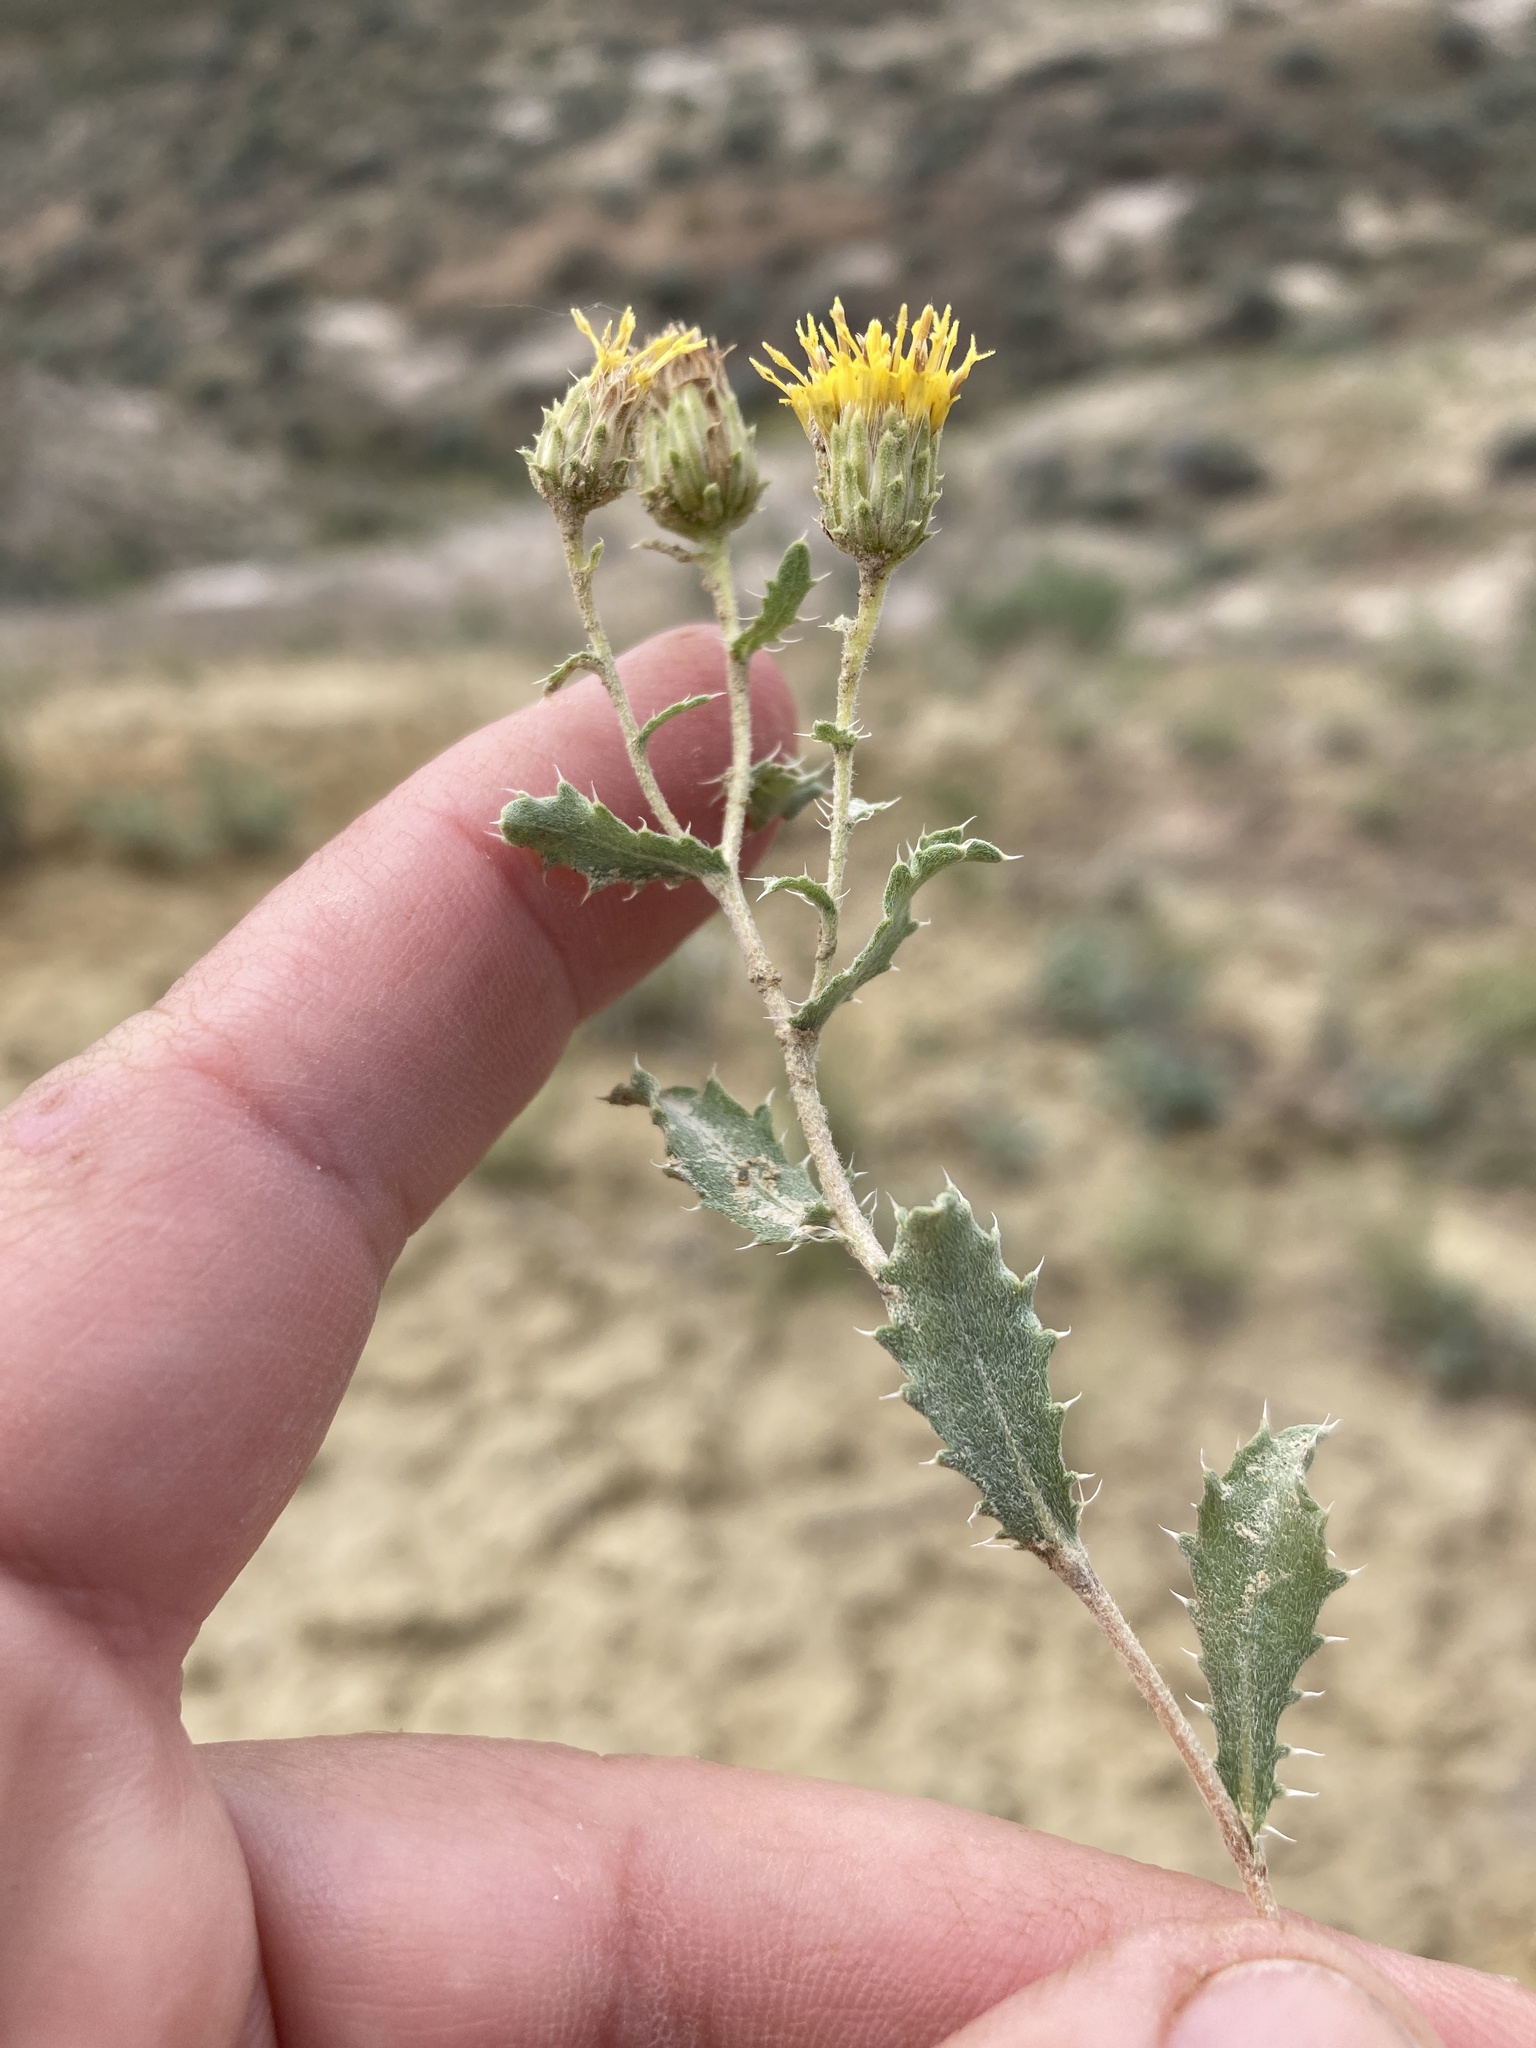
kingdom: Plantae
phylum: Tracheophyta
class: Magnoliopsida
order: Asterales
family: Asteraceae
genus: Xanthisma
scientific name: Xanthisma grindelioides
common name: Goldenweed
